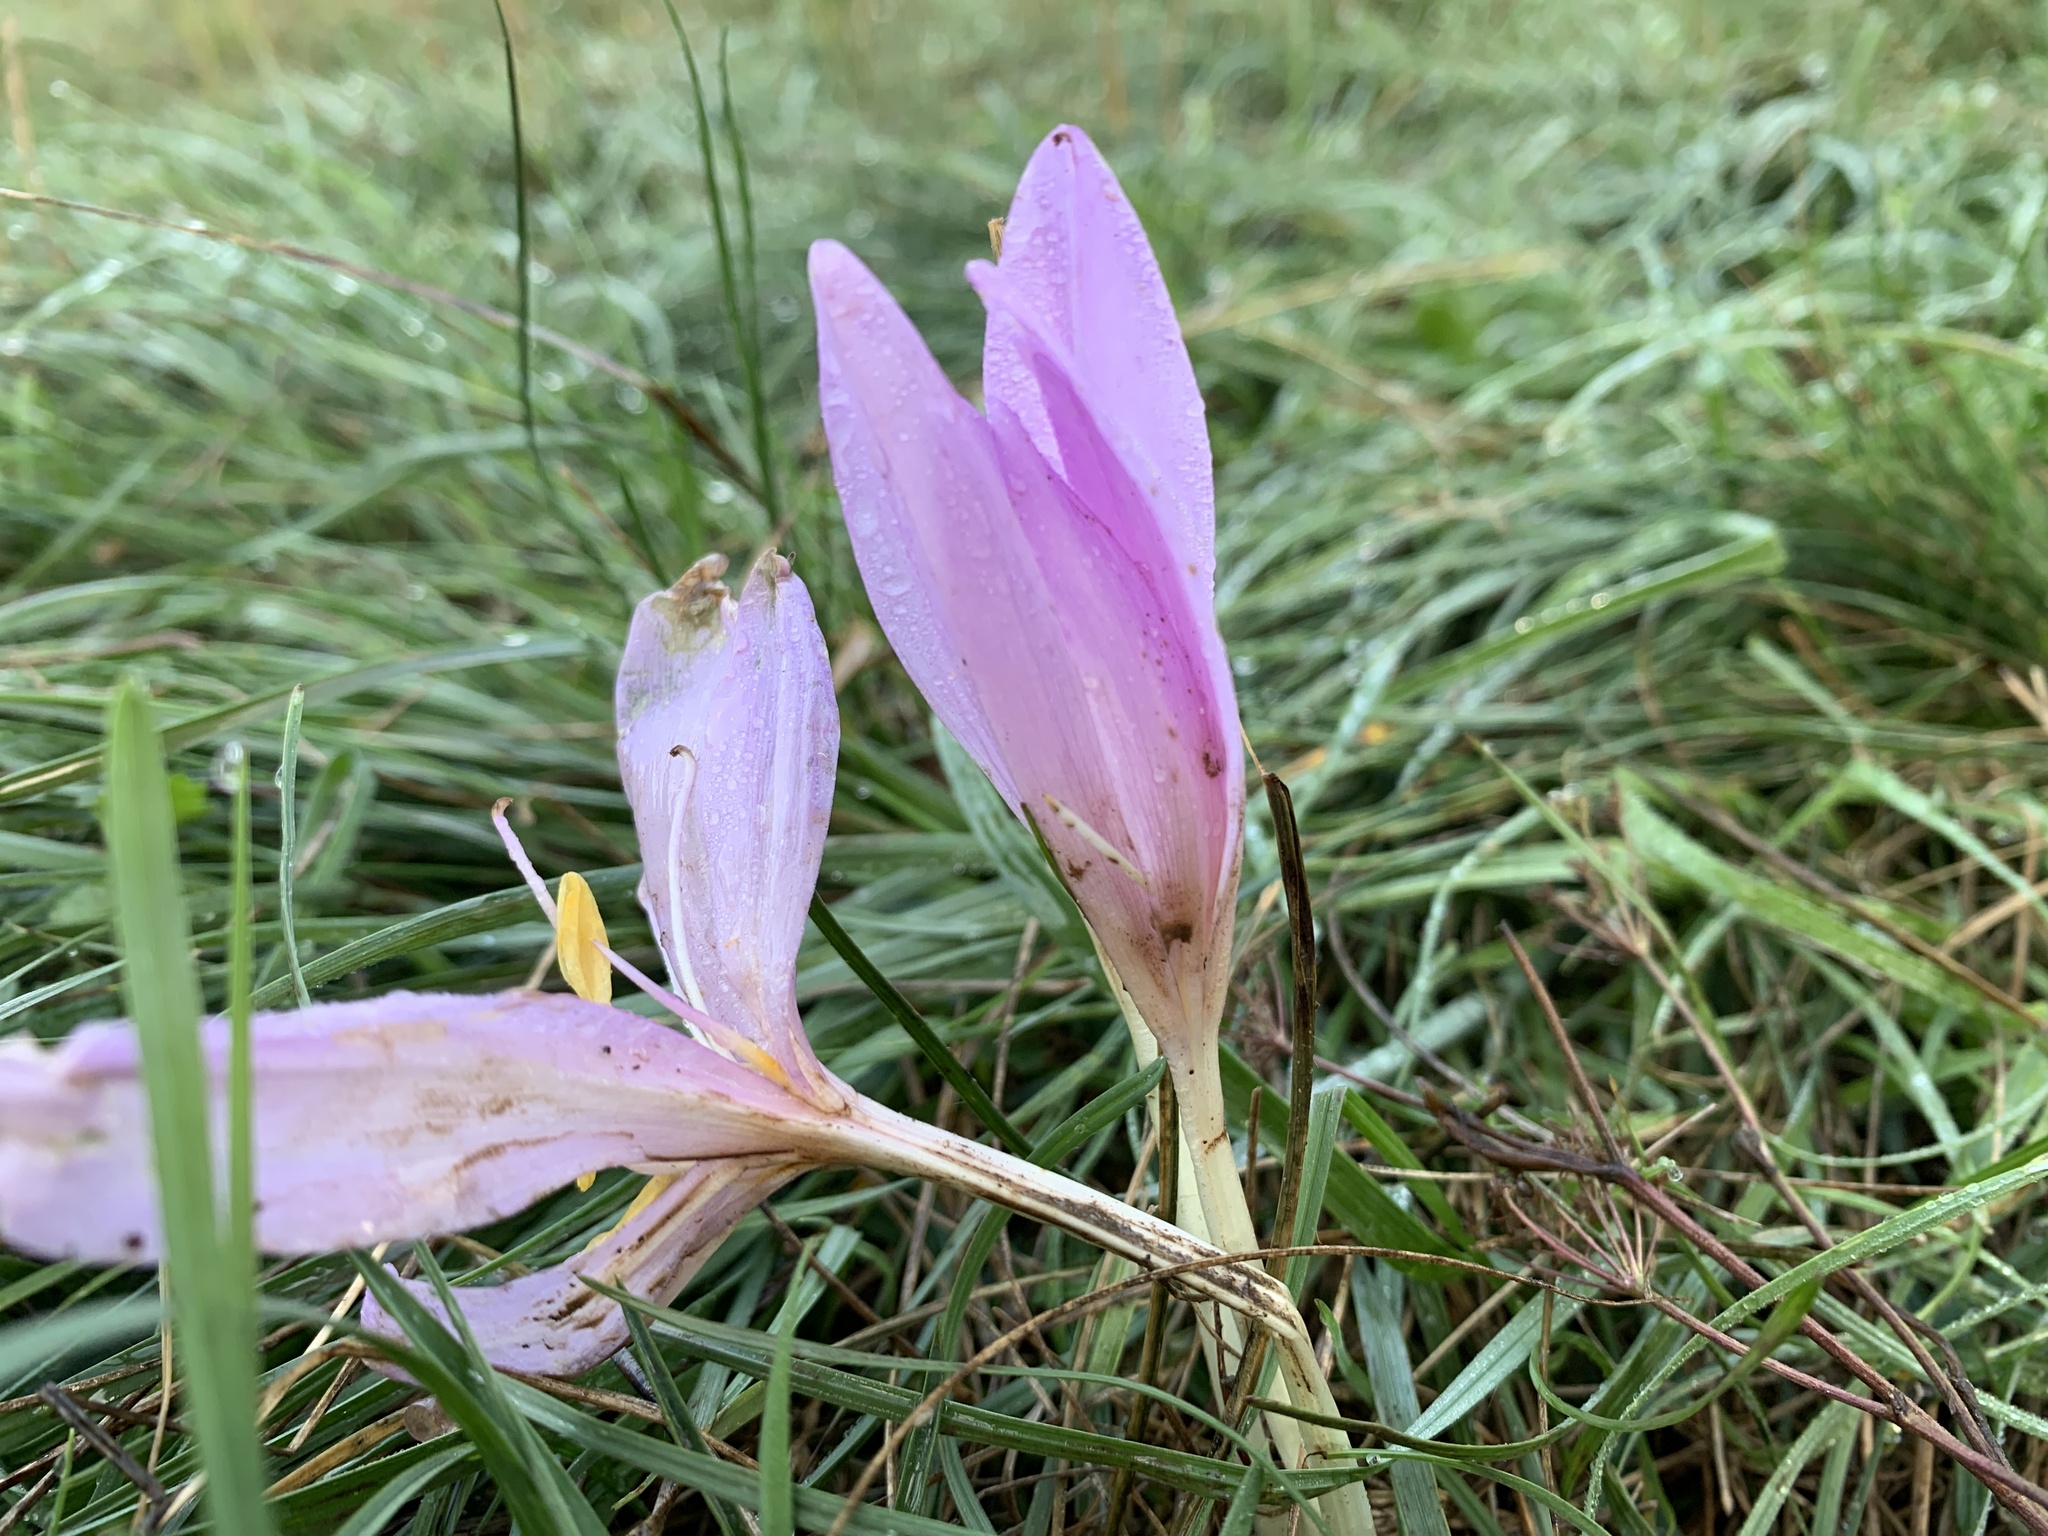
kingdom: Plantae
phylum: Tracheophyta
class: Liliopsida
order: Liliales
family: Colchicaceae
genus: Colchicum
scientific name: Colchicum autumnale
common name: Autumn crocus
